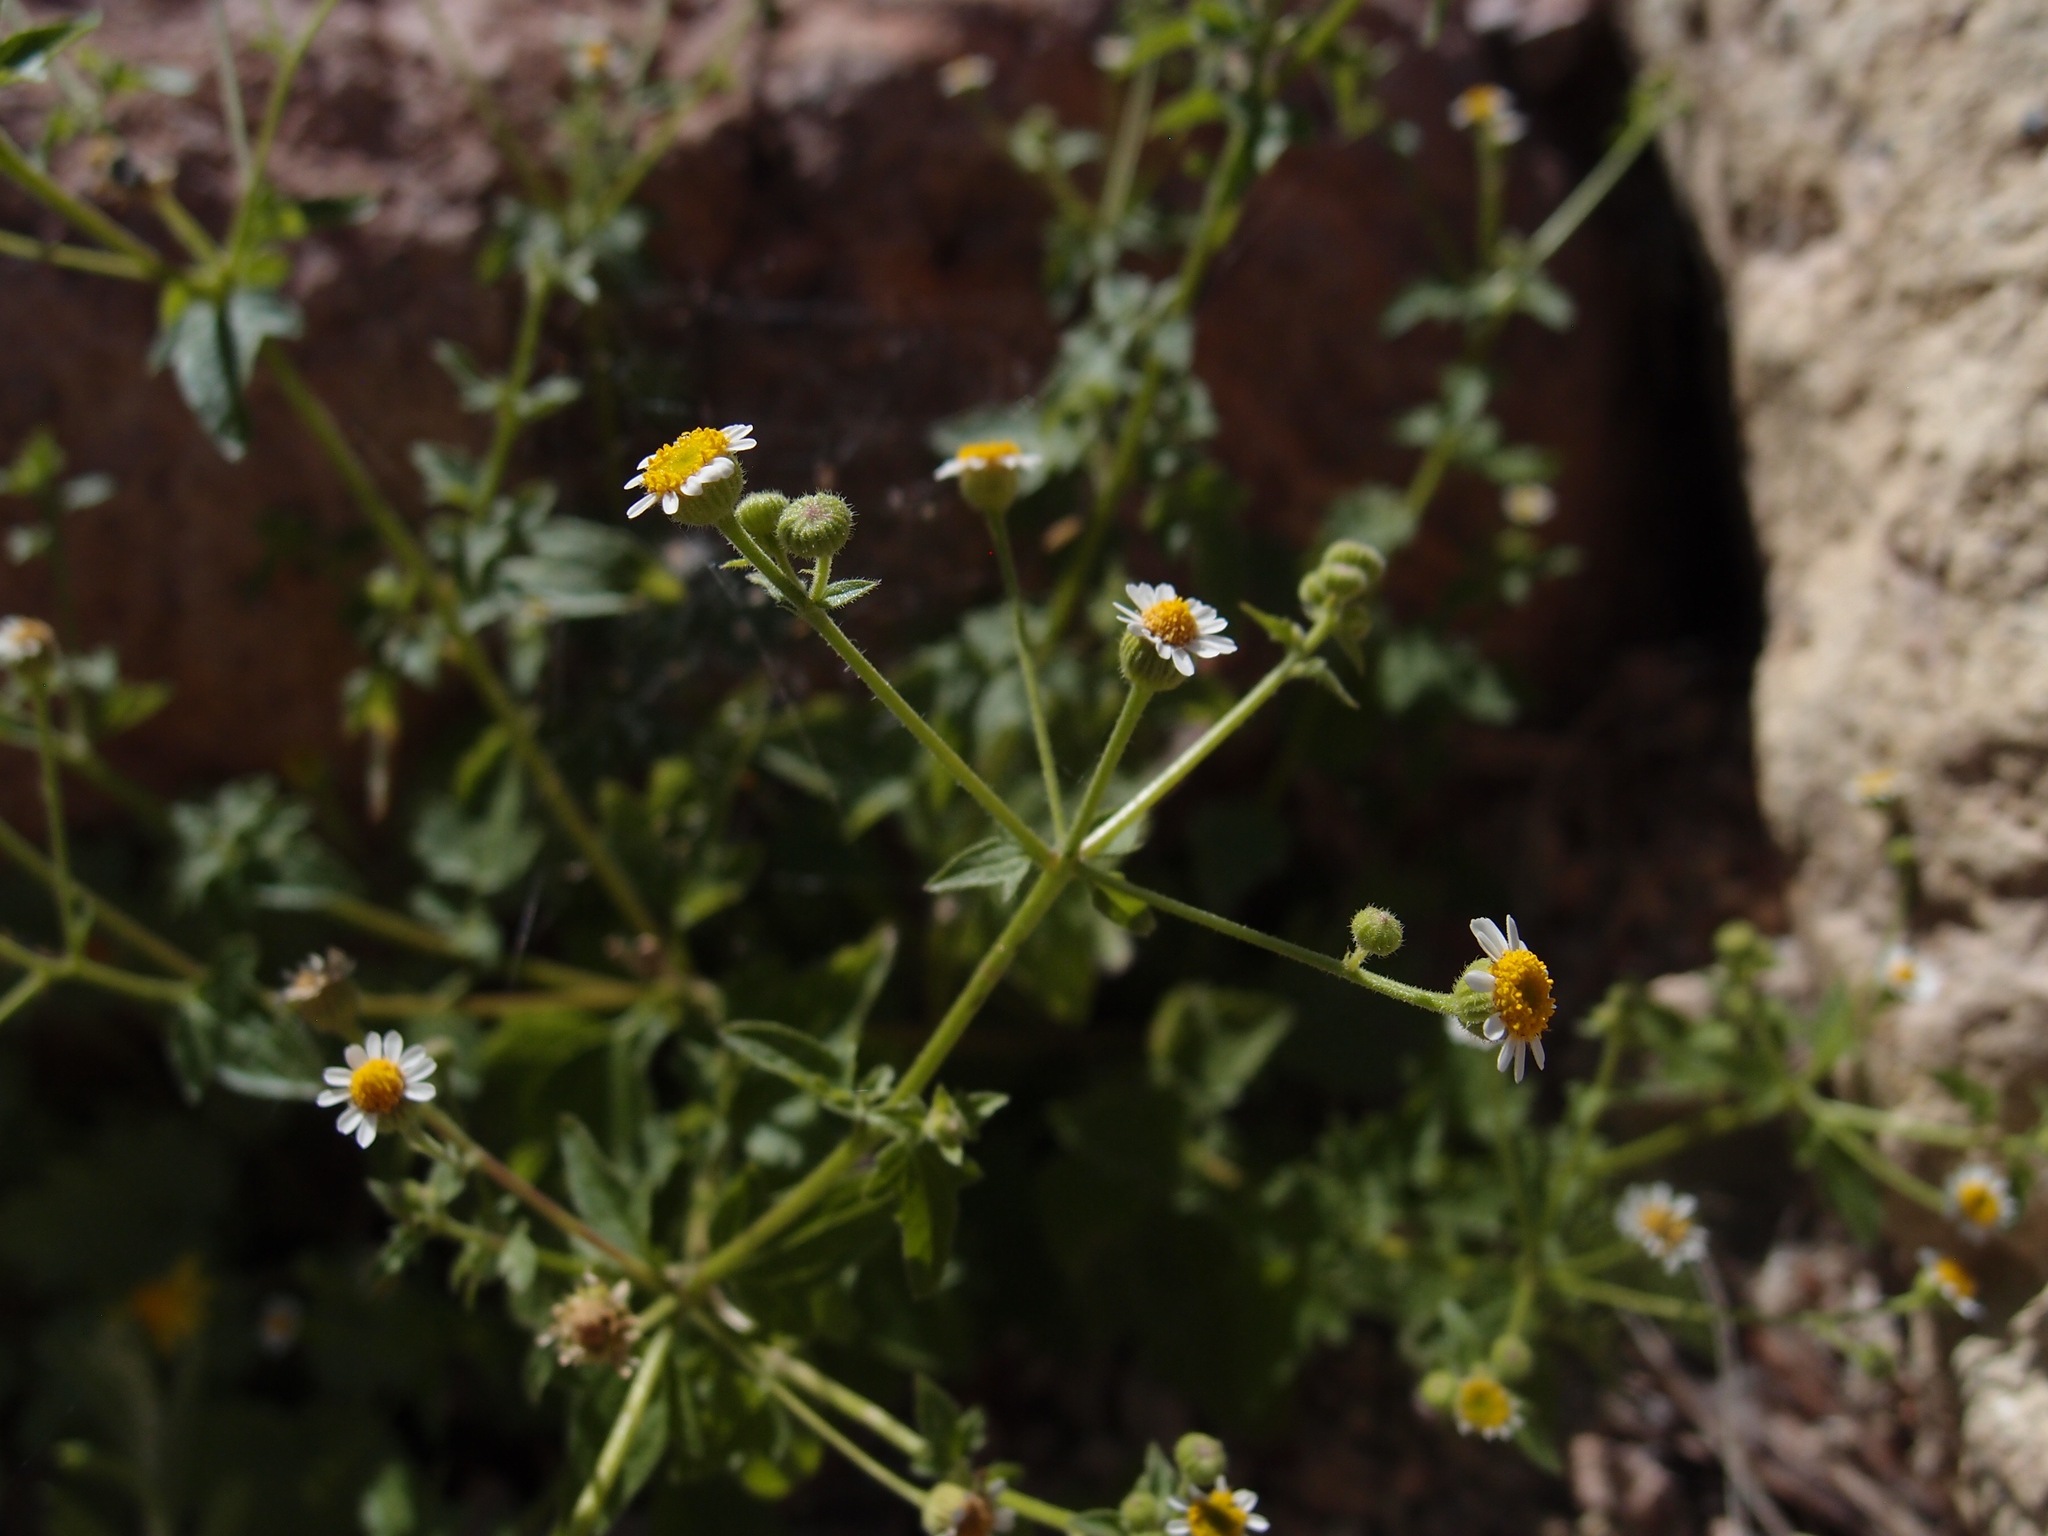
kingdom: Plantae
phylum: Tracheophyta
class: Magnoliopsida
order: Asterales
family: Asteraceae
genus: Laphamia
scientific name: Laphamia emoryi
